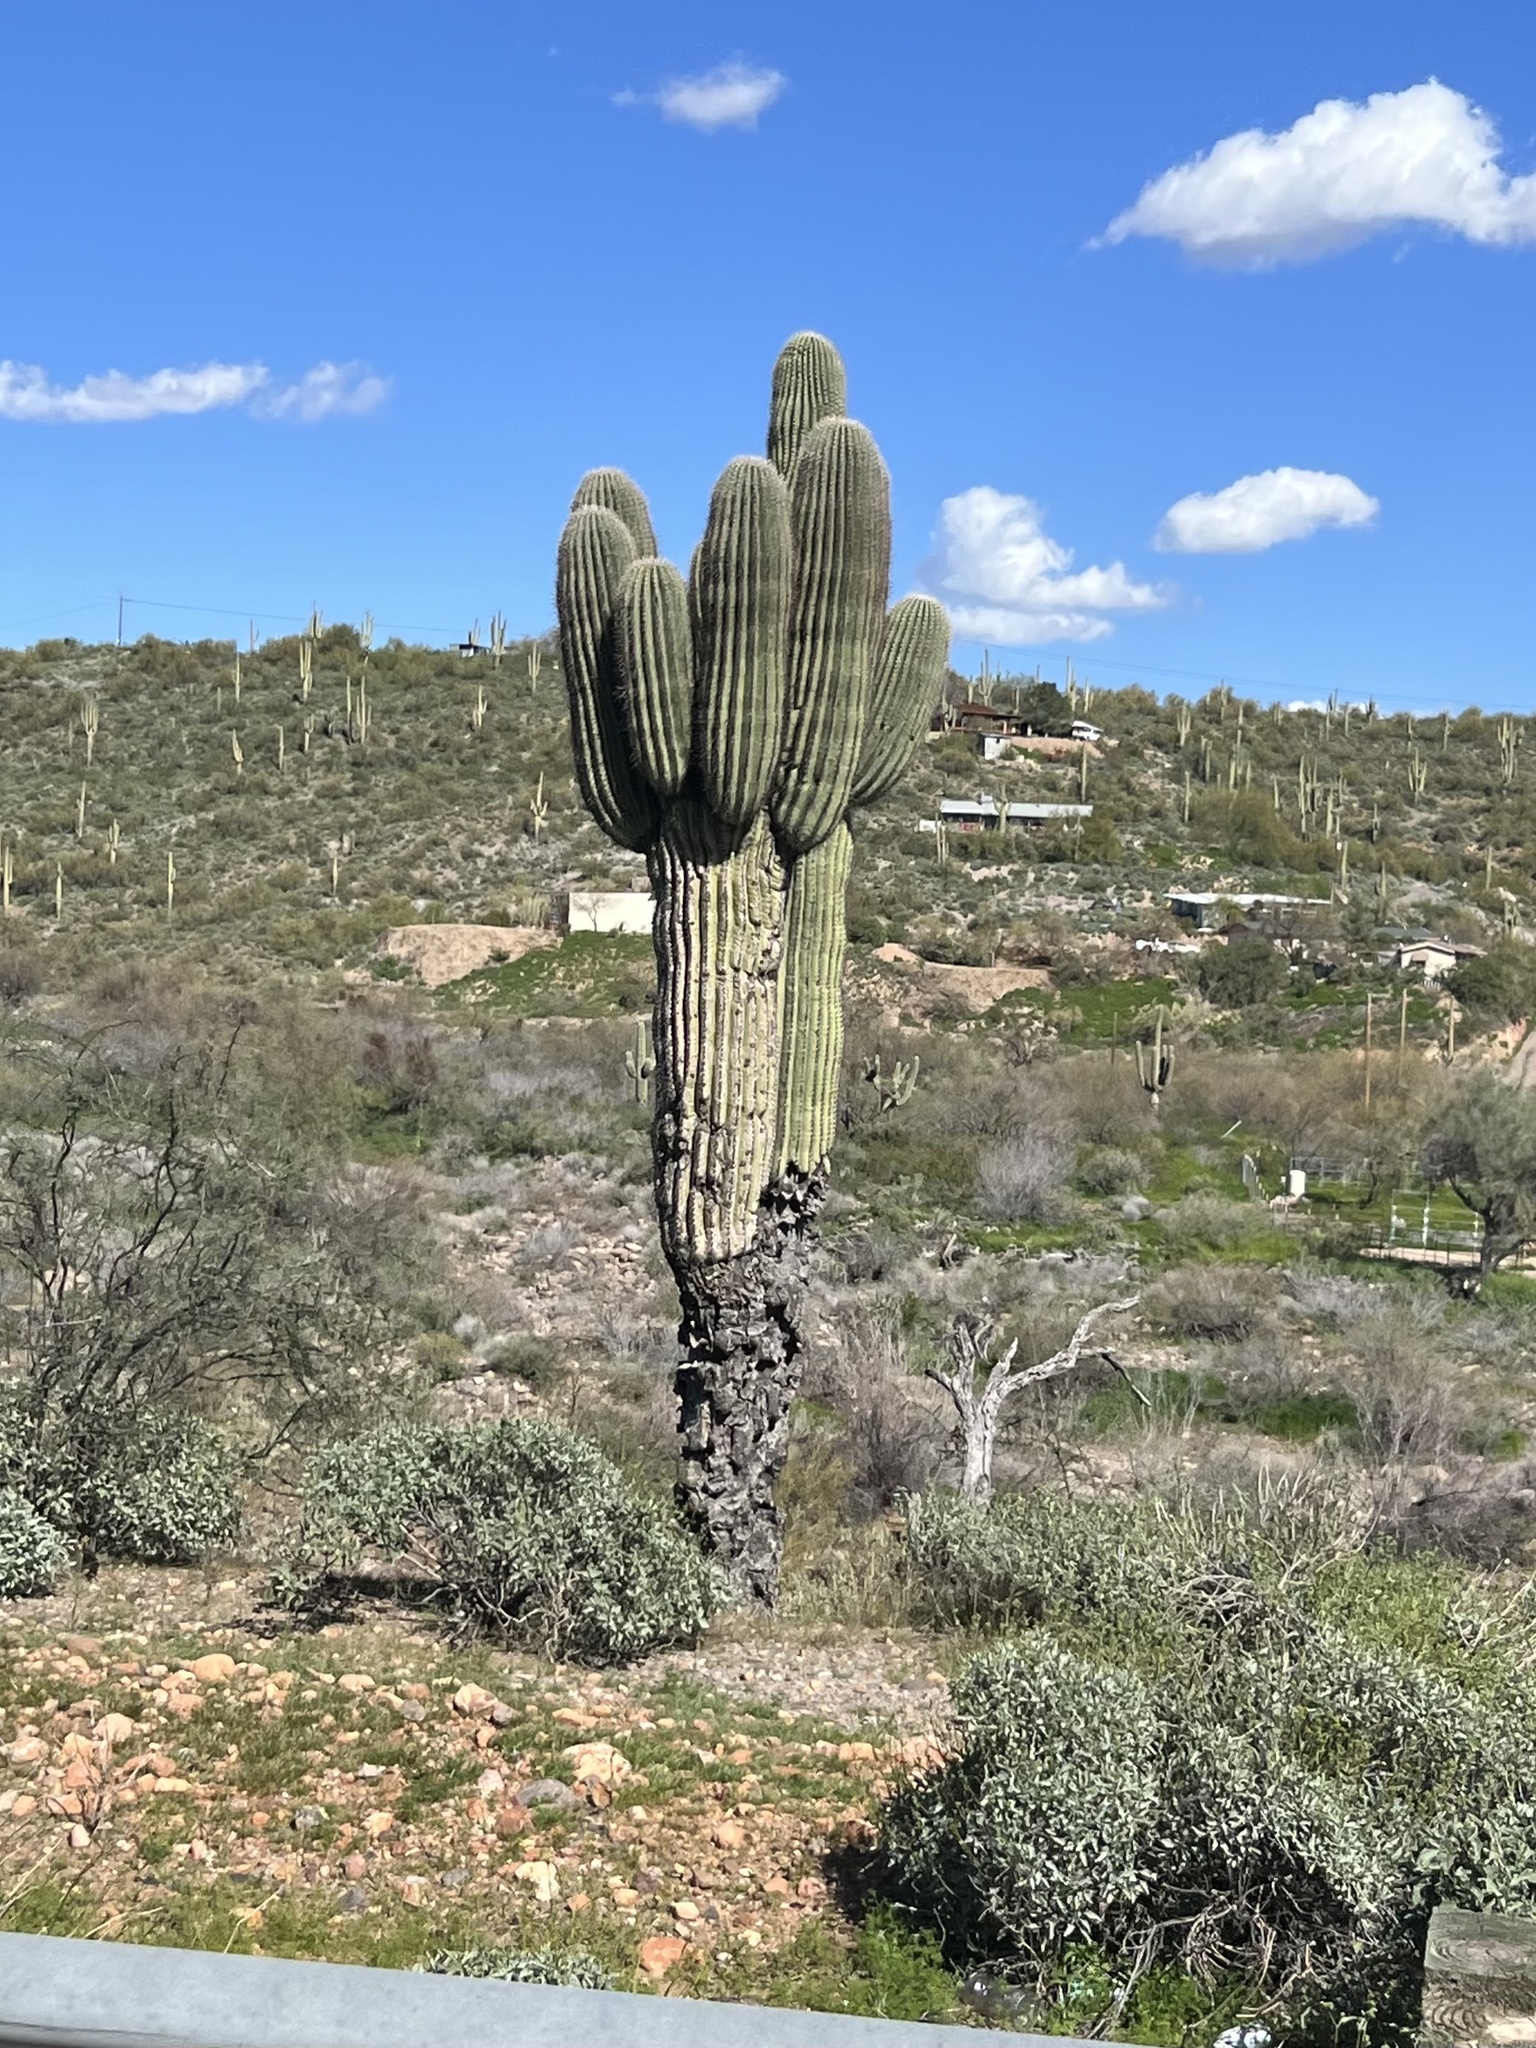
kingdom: Plantae
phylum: Tracheophyta
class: Magnoliopsida
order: Caryophyllales
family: Cactaceae
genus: Carnegiea
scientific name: Carnegiea gigantea
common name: Saguaro
